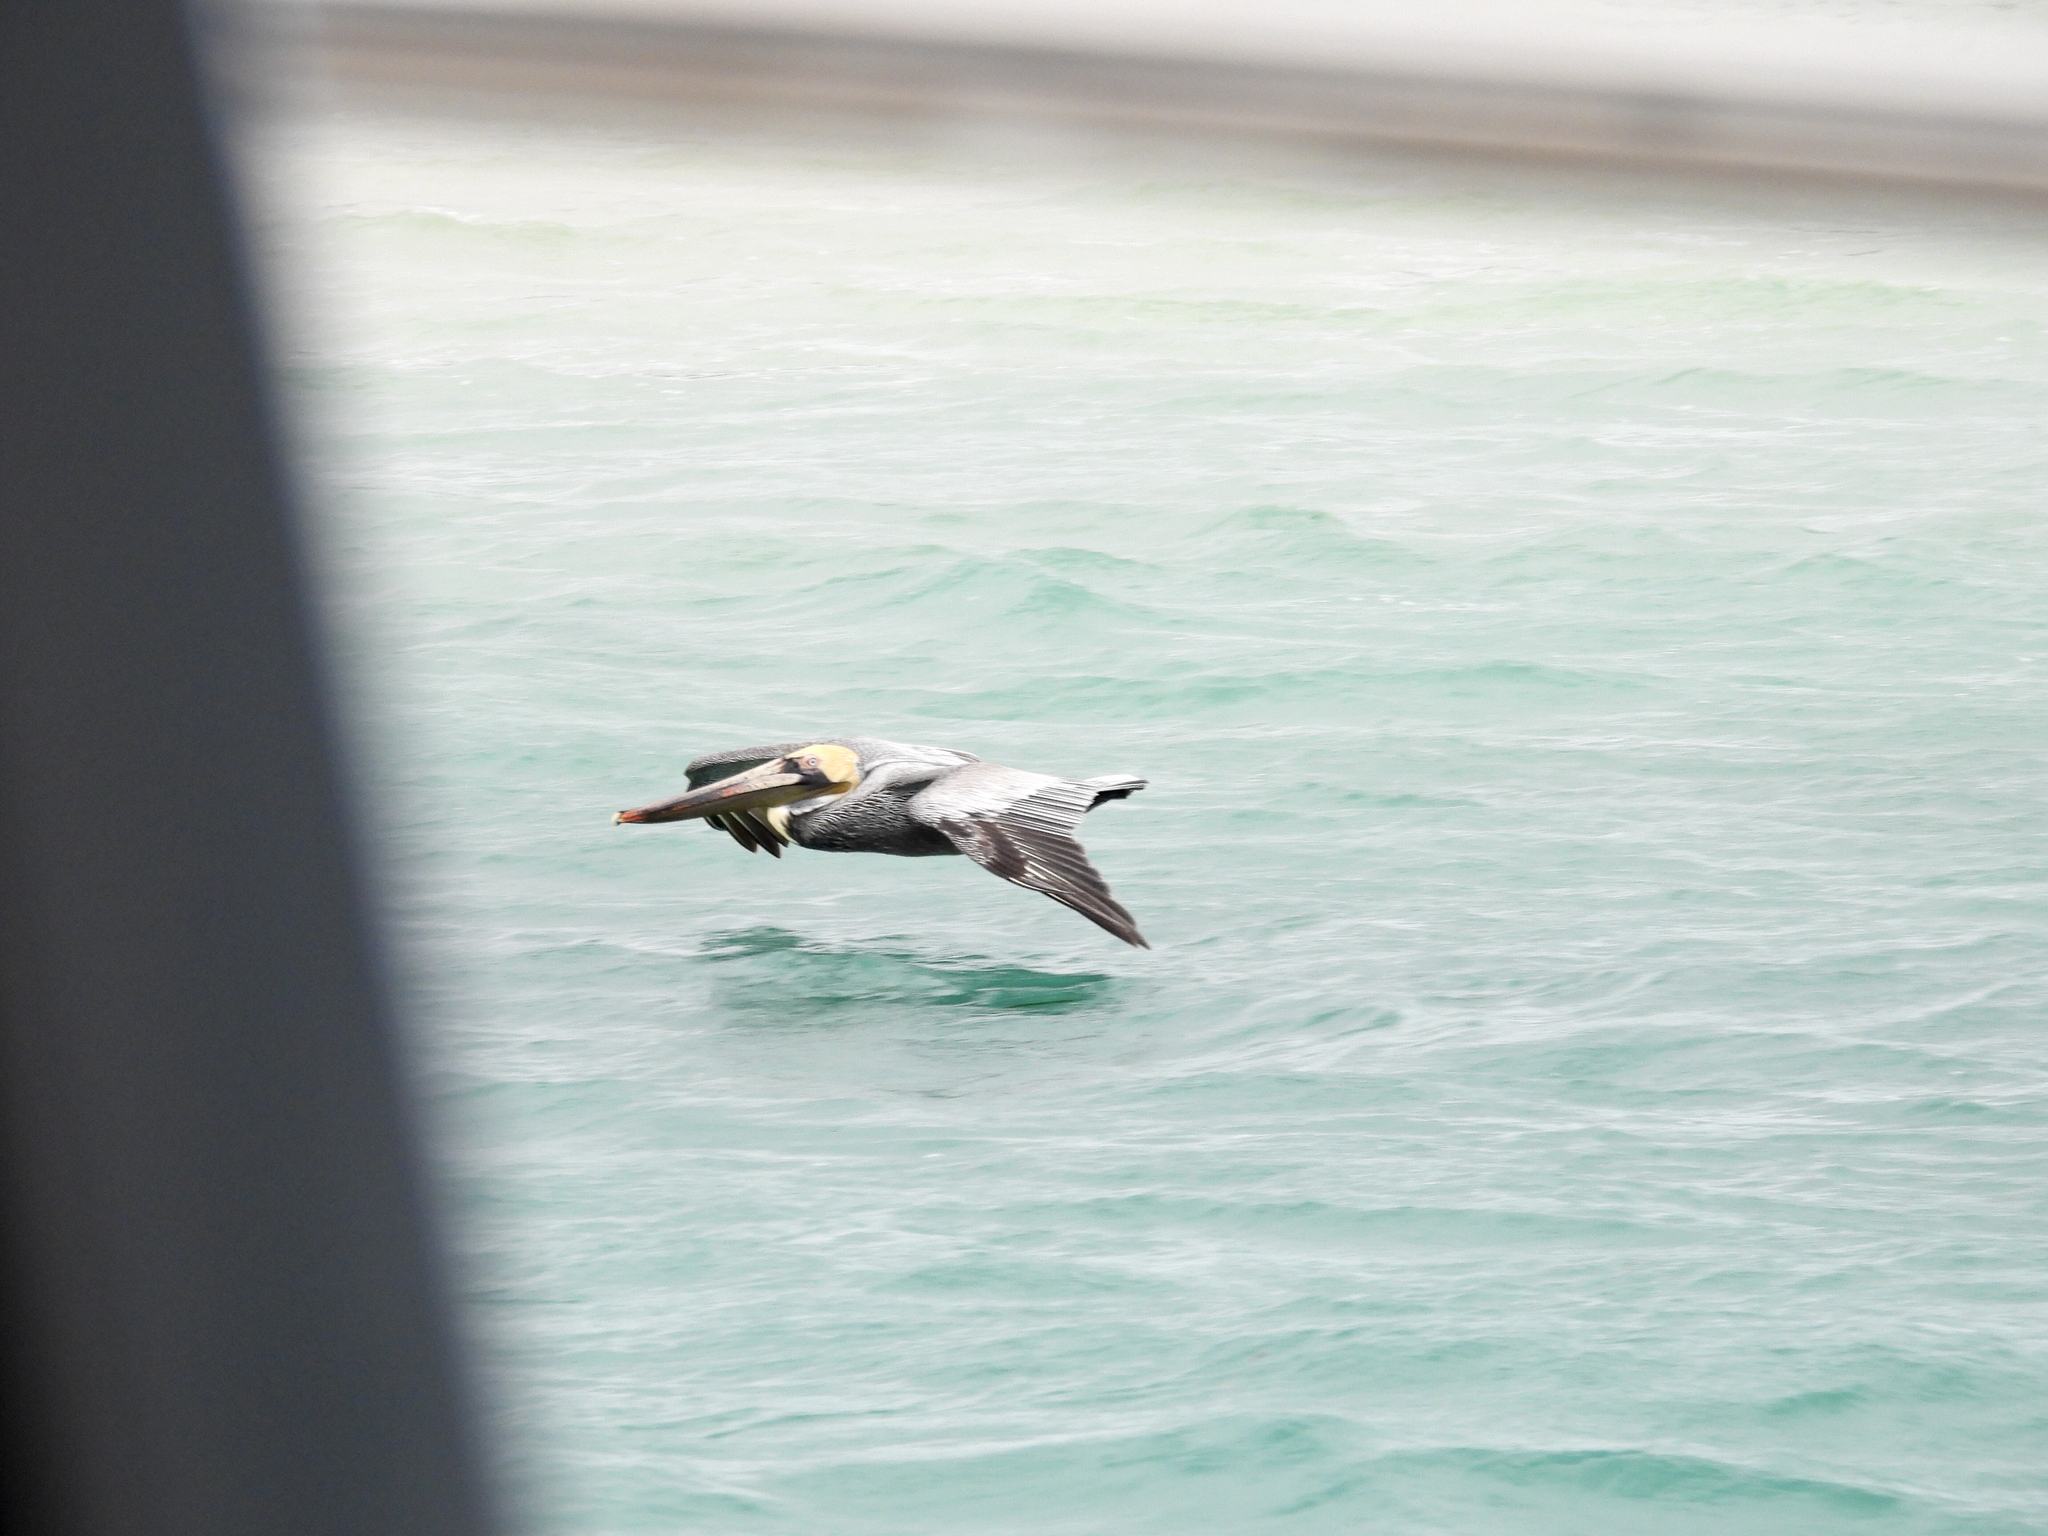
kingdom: Animalia
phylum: Chordata
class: Aves
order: Pelecaniformes
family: Pelecanidae
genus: Pelecanus
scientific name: Pelecanus occidentalis
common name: Brown pelican
